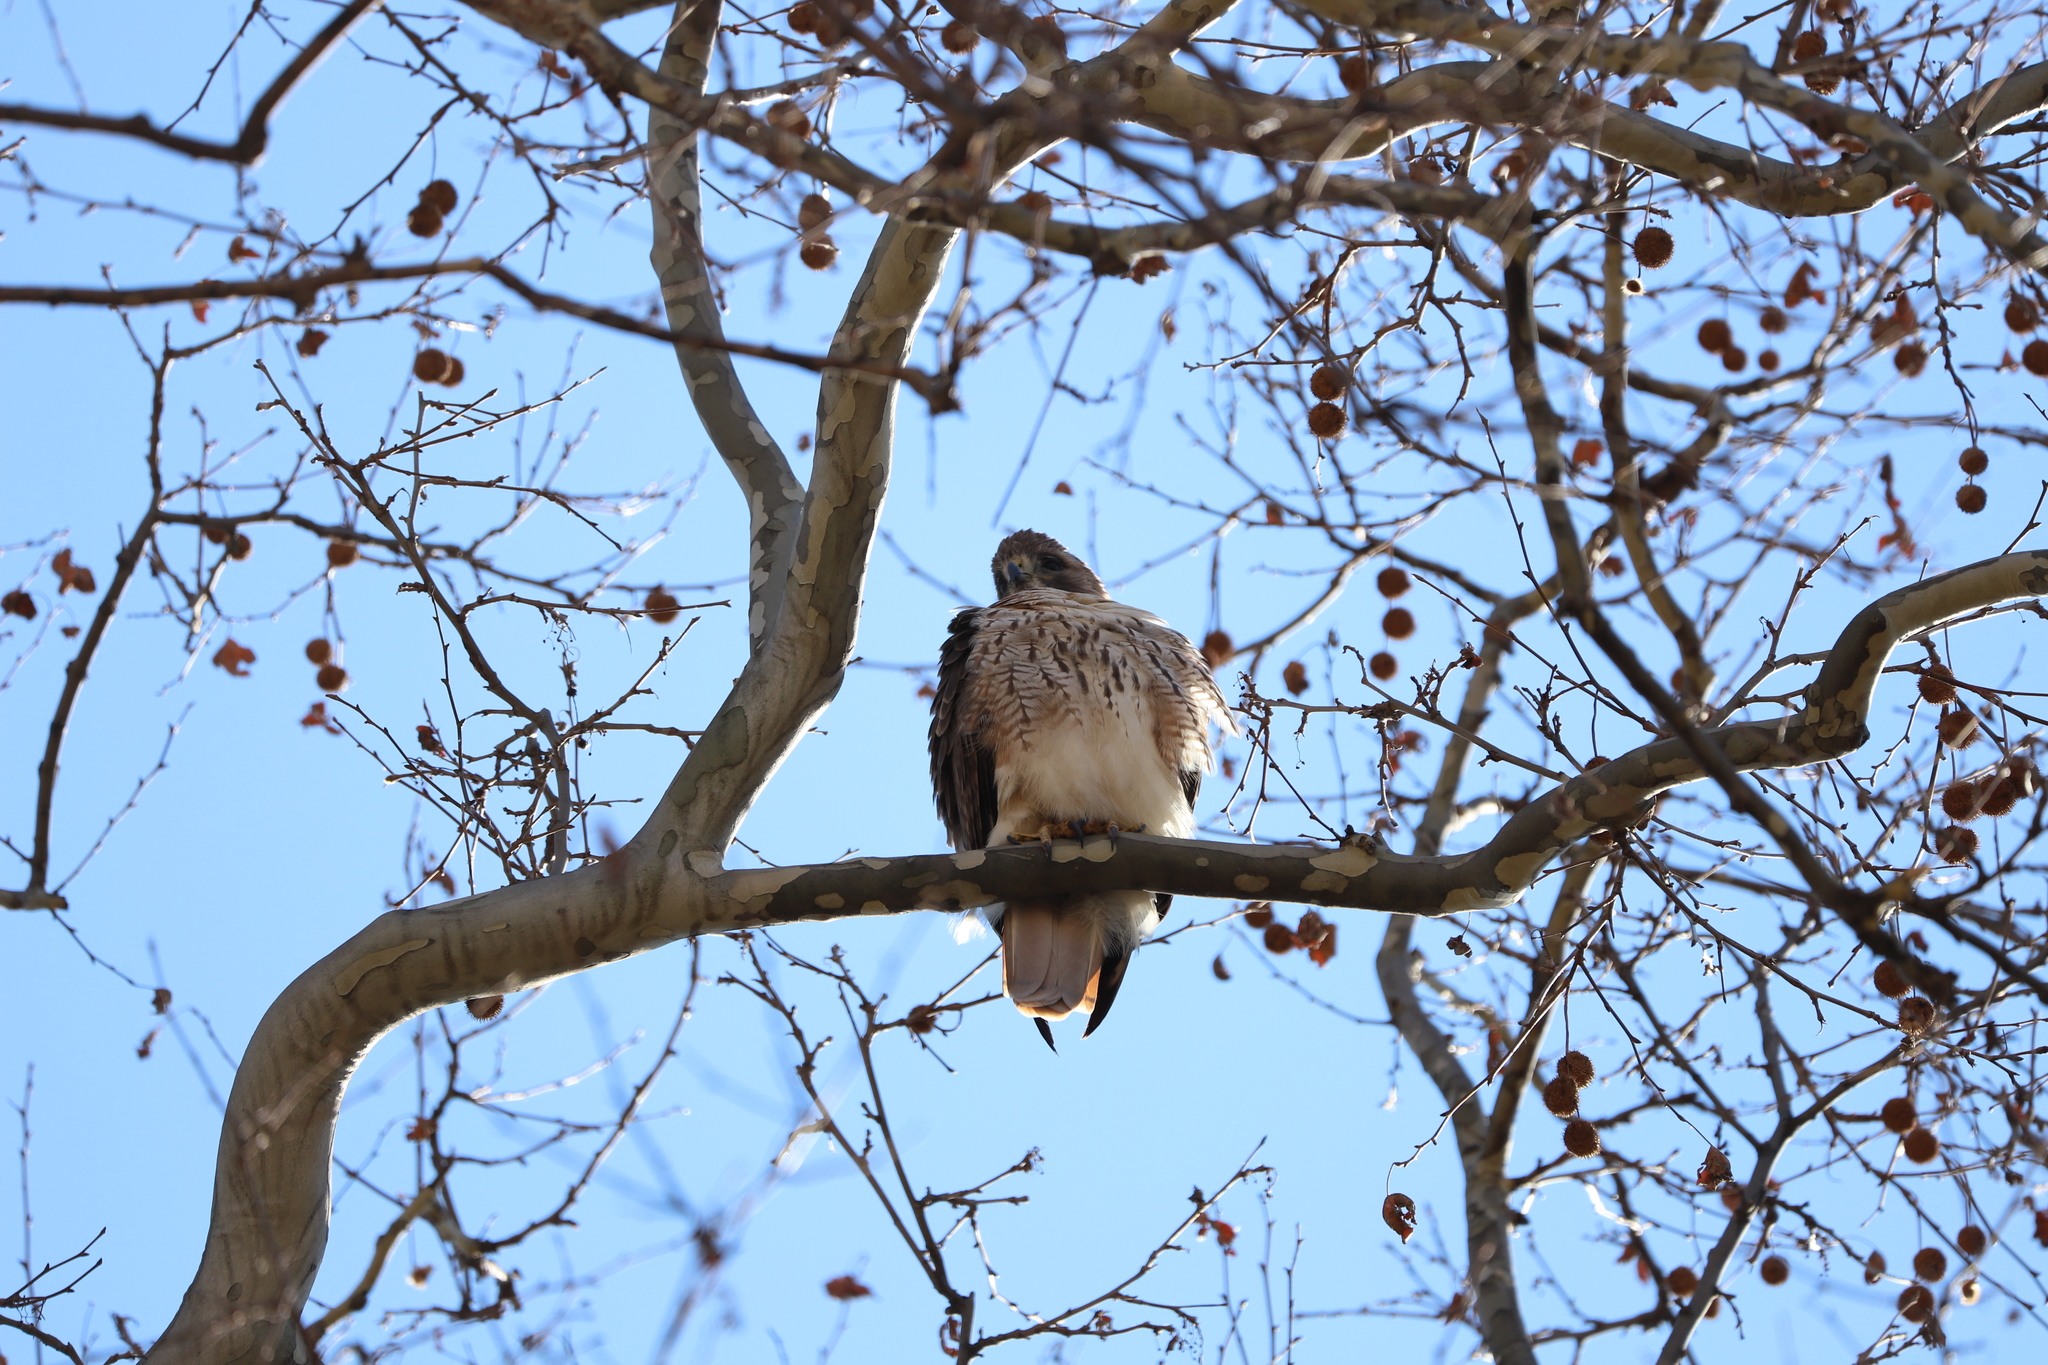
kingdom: Animalia
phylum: Chordata
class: Aves
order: Accipitriformes
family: Accipitridae
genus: Buteo
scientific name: Buteo jamaicensis
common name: Red-tailed hawk
